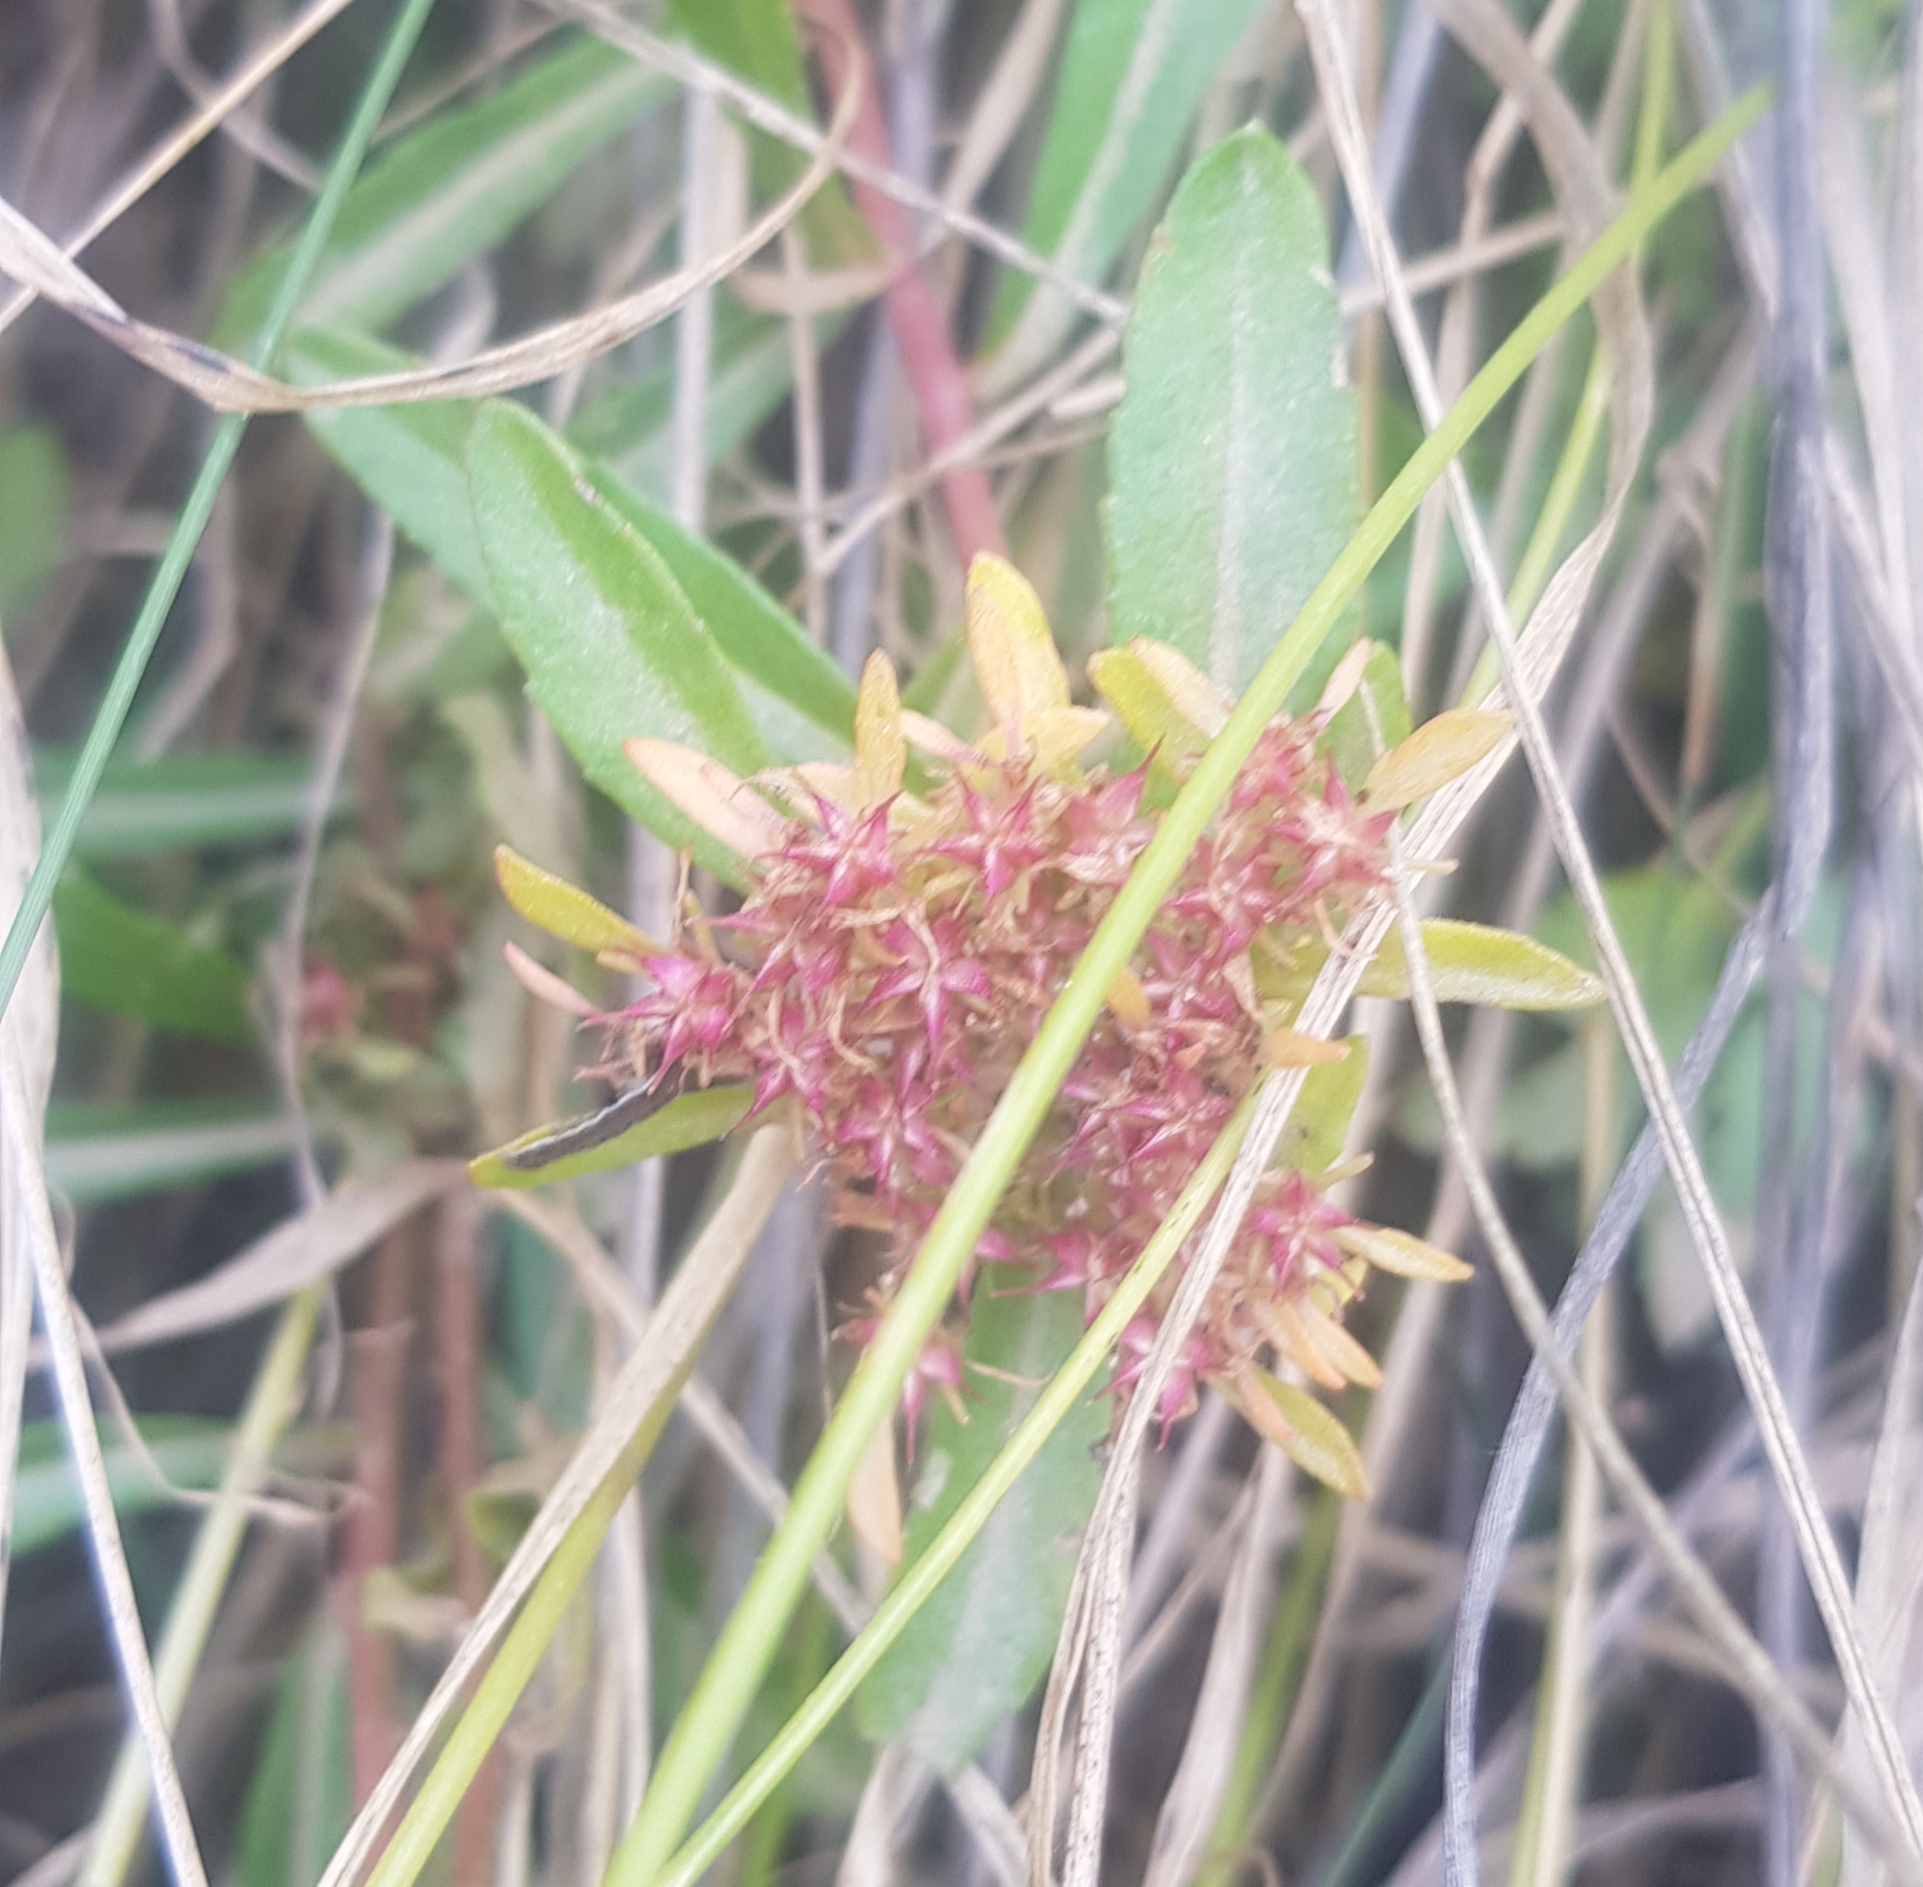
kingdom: Plantae
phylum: Tracheophyta
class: Magnoliopsida
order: Saxifragales
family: Crassulaceae
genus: Phedimus
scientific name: Phedimus aizoon
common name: Orpin aizoon
